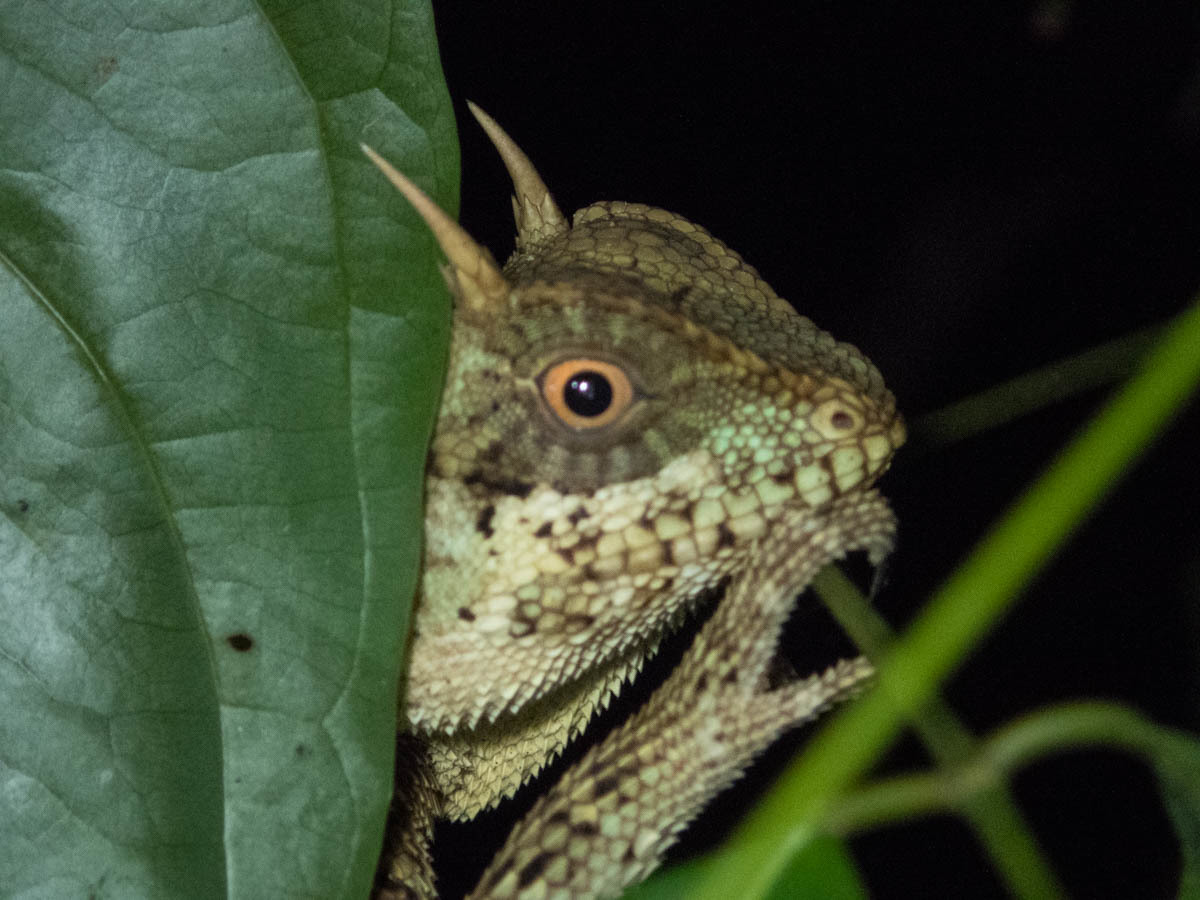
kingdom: Animalia
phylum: Chordata
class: Squamata
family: Agamidae
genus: Acanthosaura
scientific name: Acanthosaura cardamomensis
